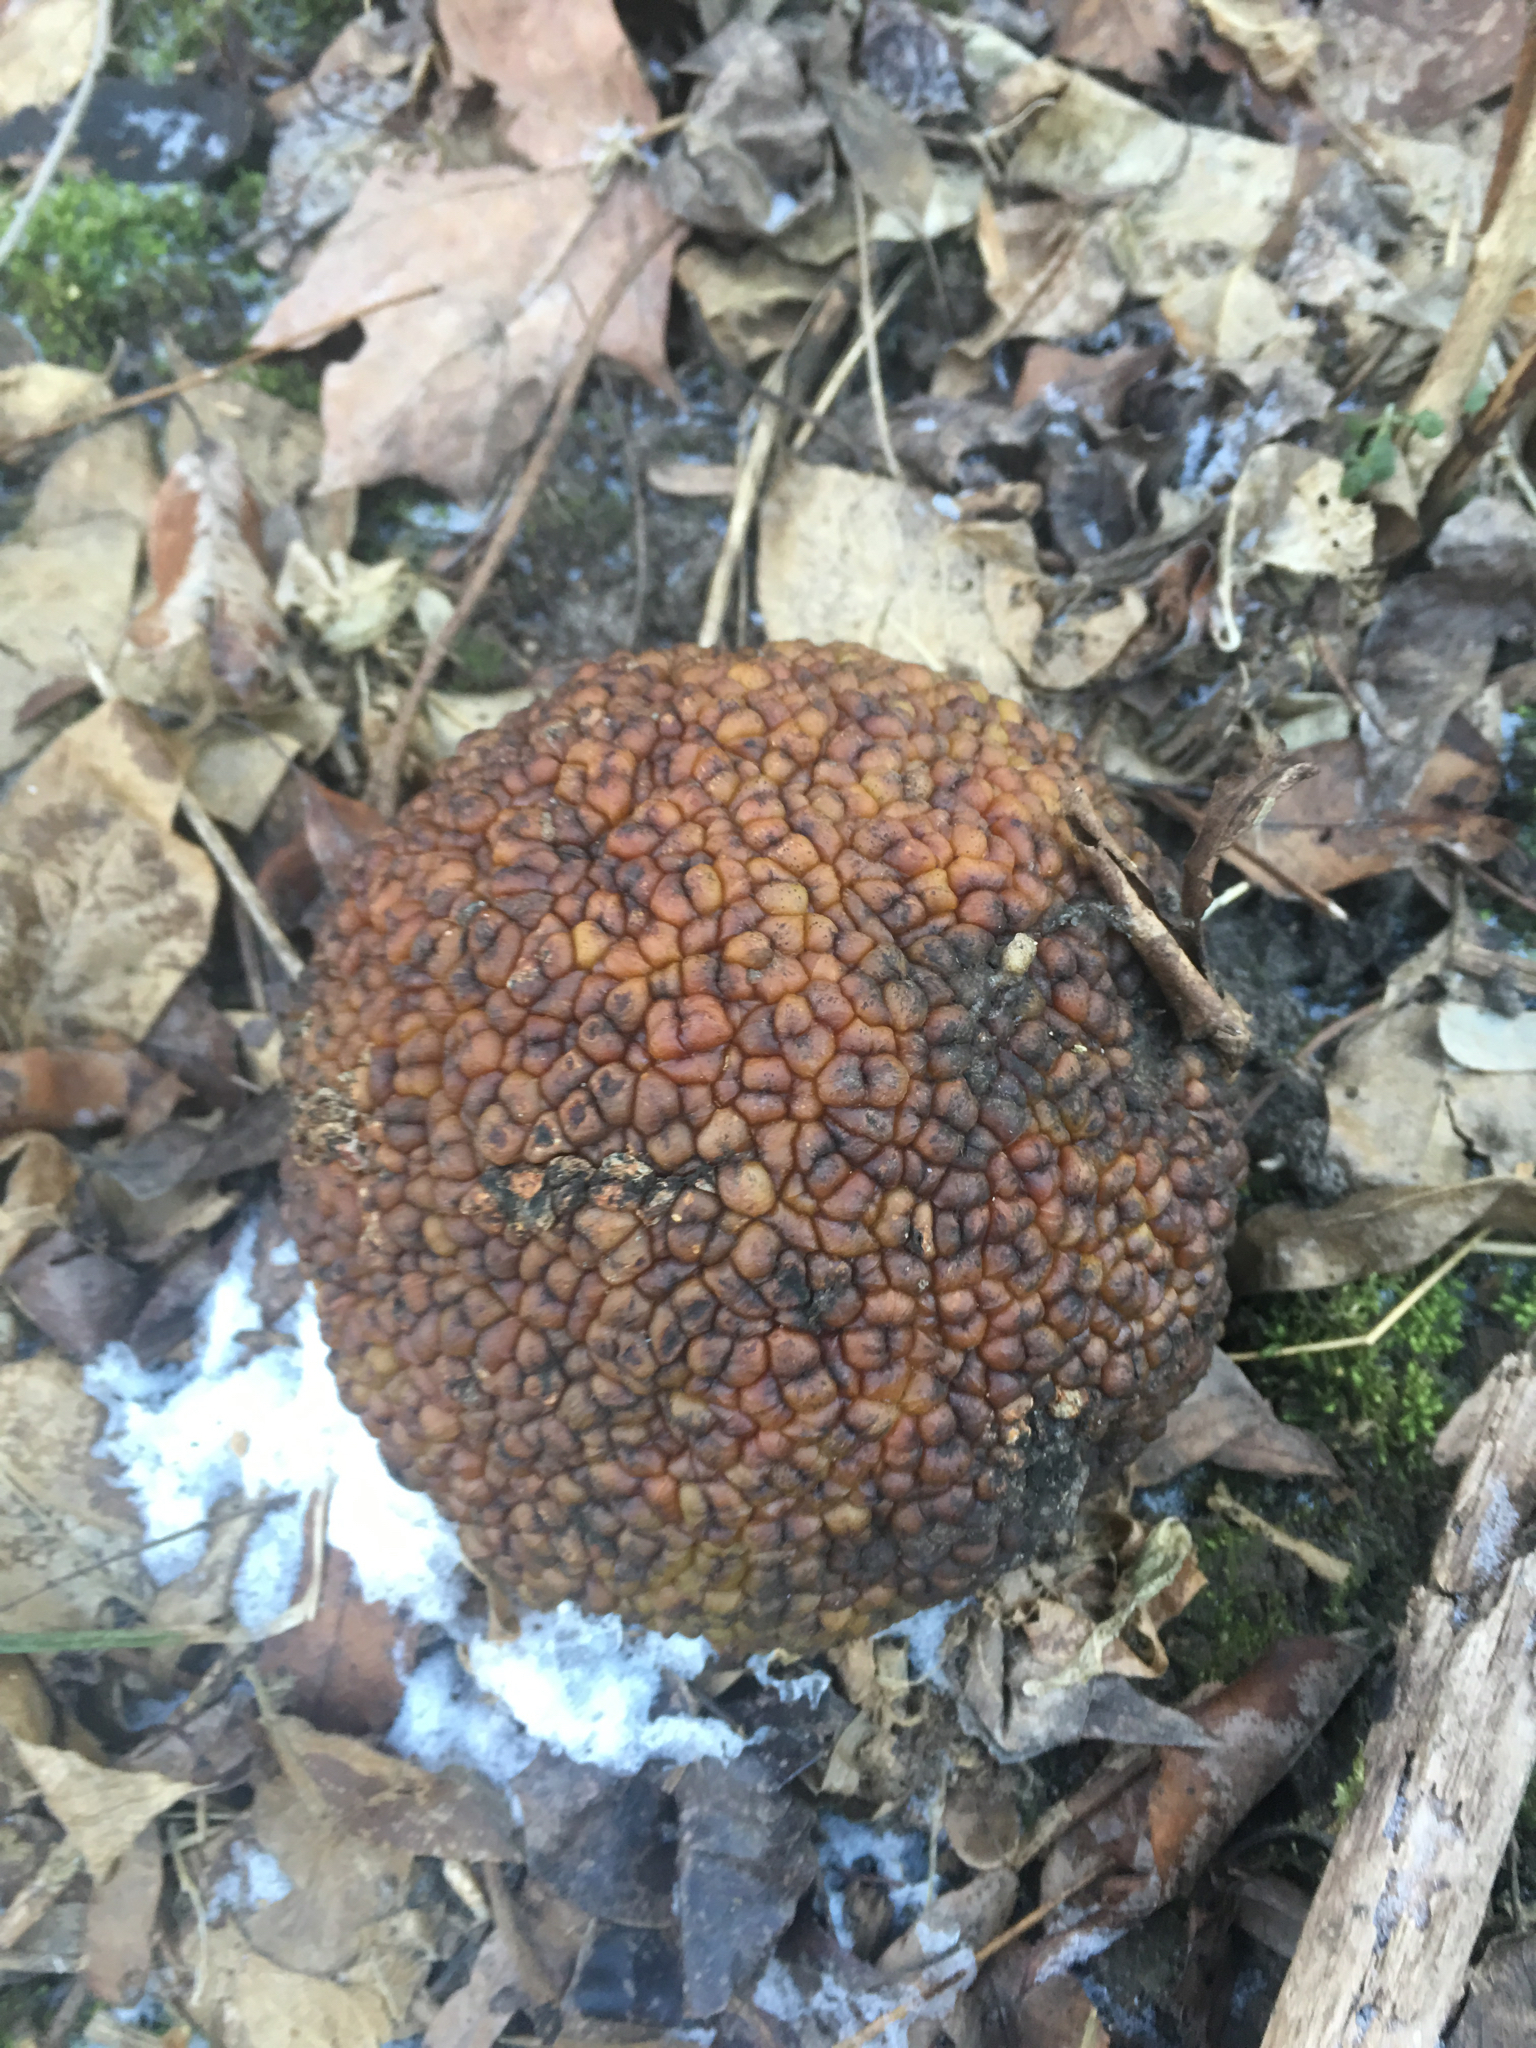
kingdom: Plantae
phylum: Tracheophyta
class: Magnoliopsida
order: Rosales
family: Moraceae
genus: Maclura
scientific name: Maclura pomifera
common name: Osage-orange
